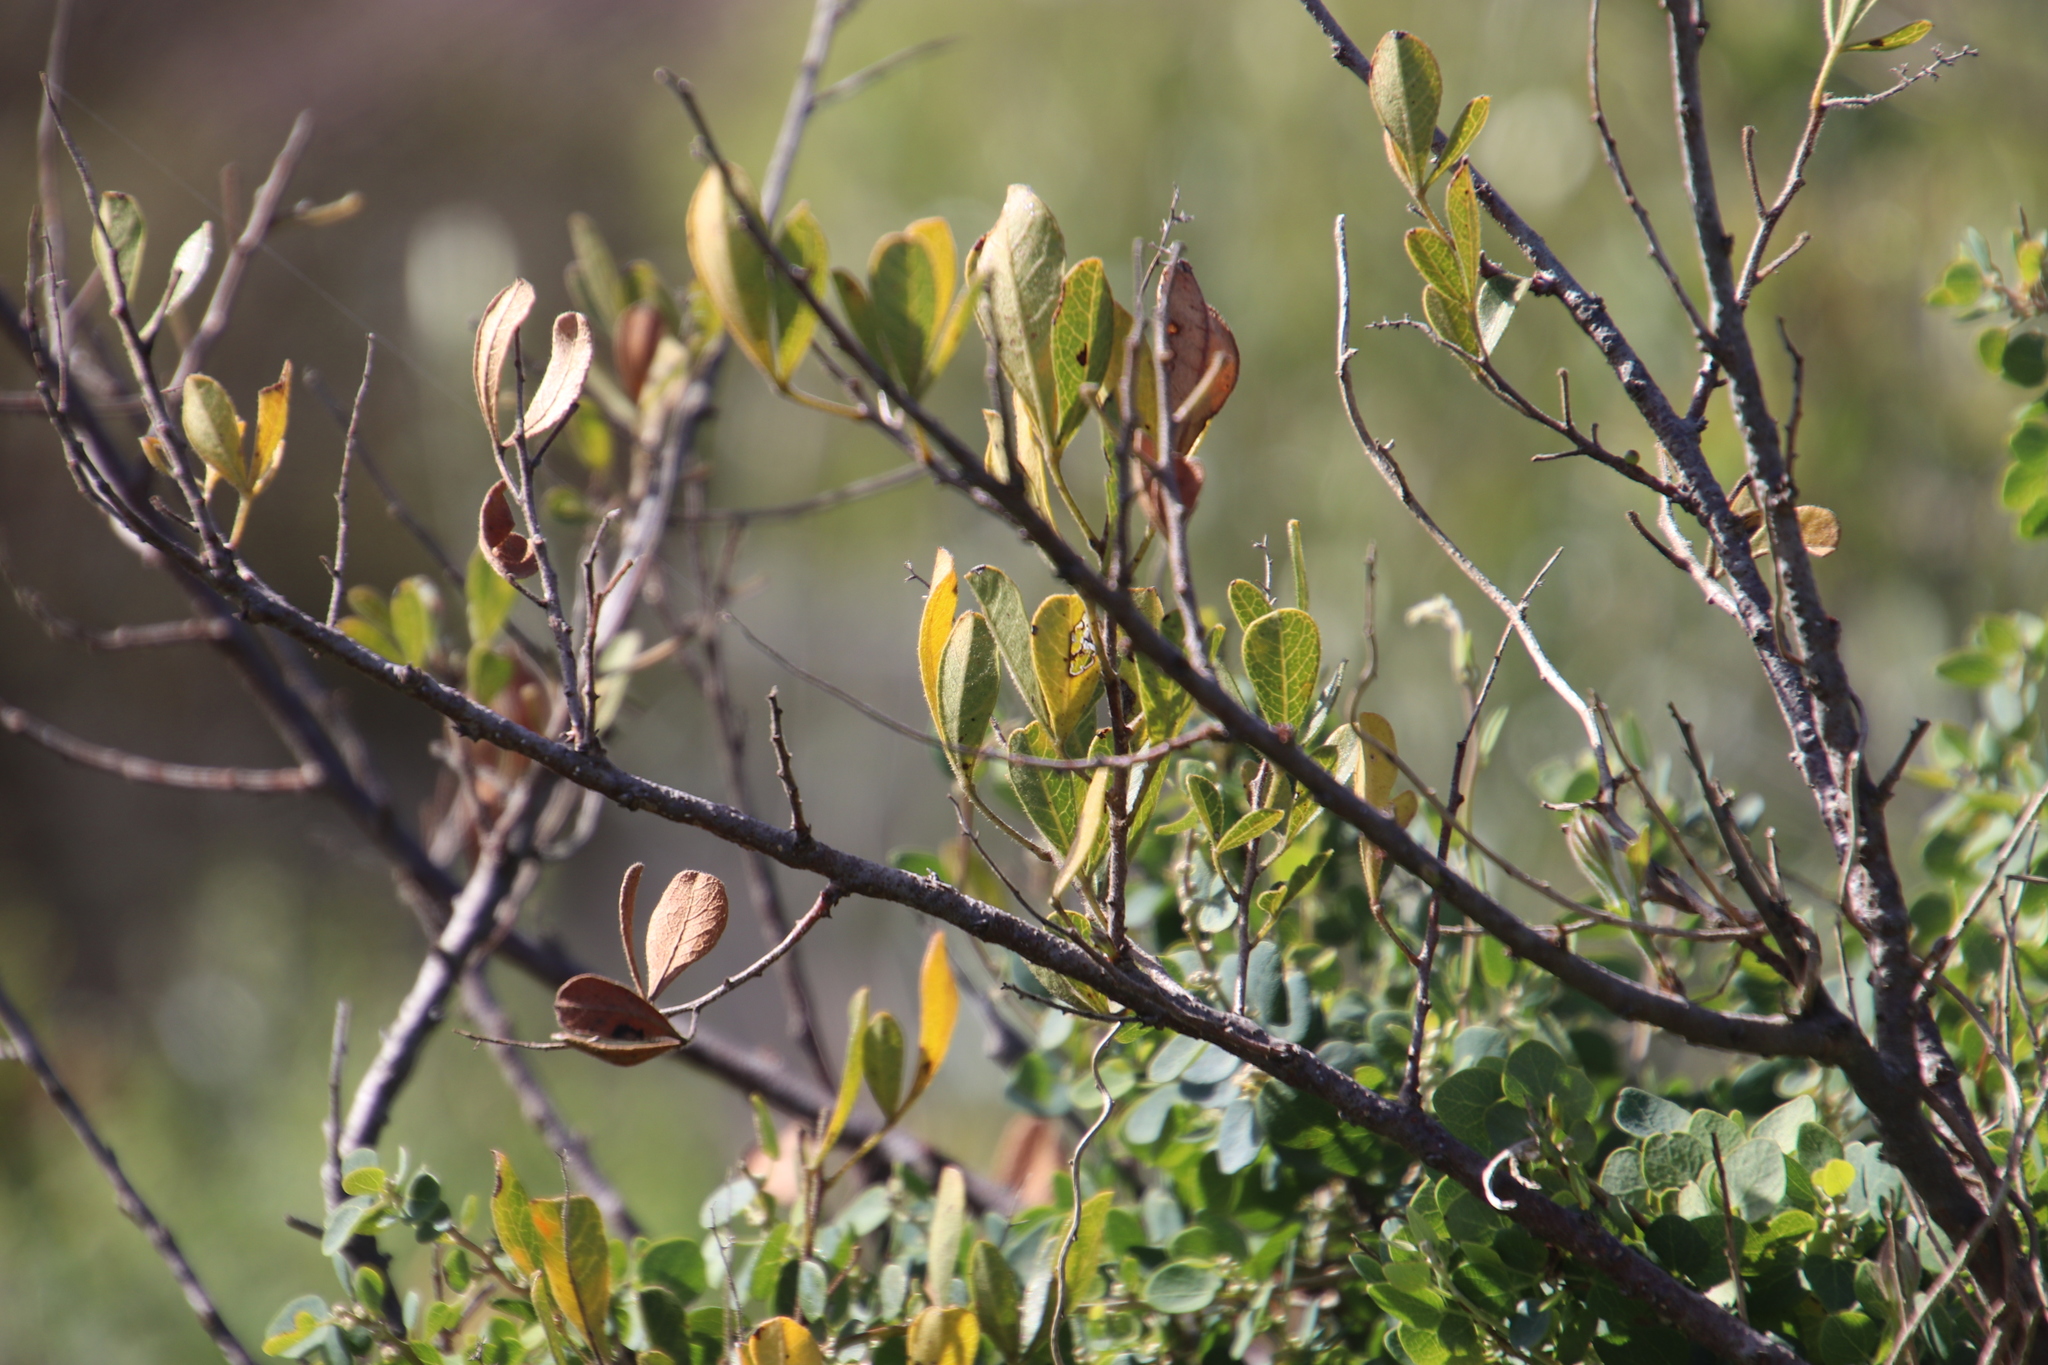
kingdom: Plantae
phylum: Tracheophyta
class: Magnoliopsida
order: Sapindales
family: Anacardiaceae
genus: Searsia
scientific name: Searsia laevigata
